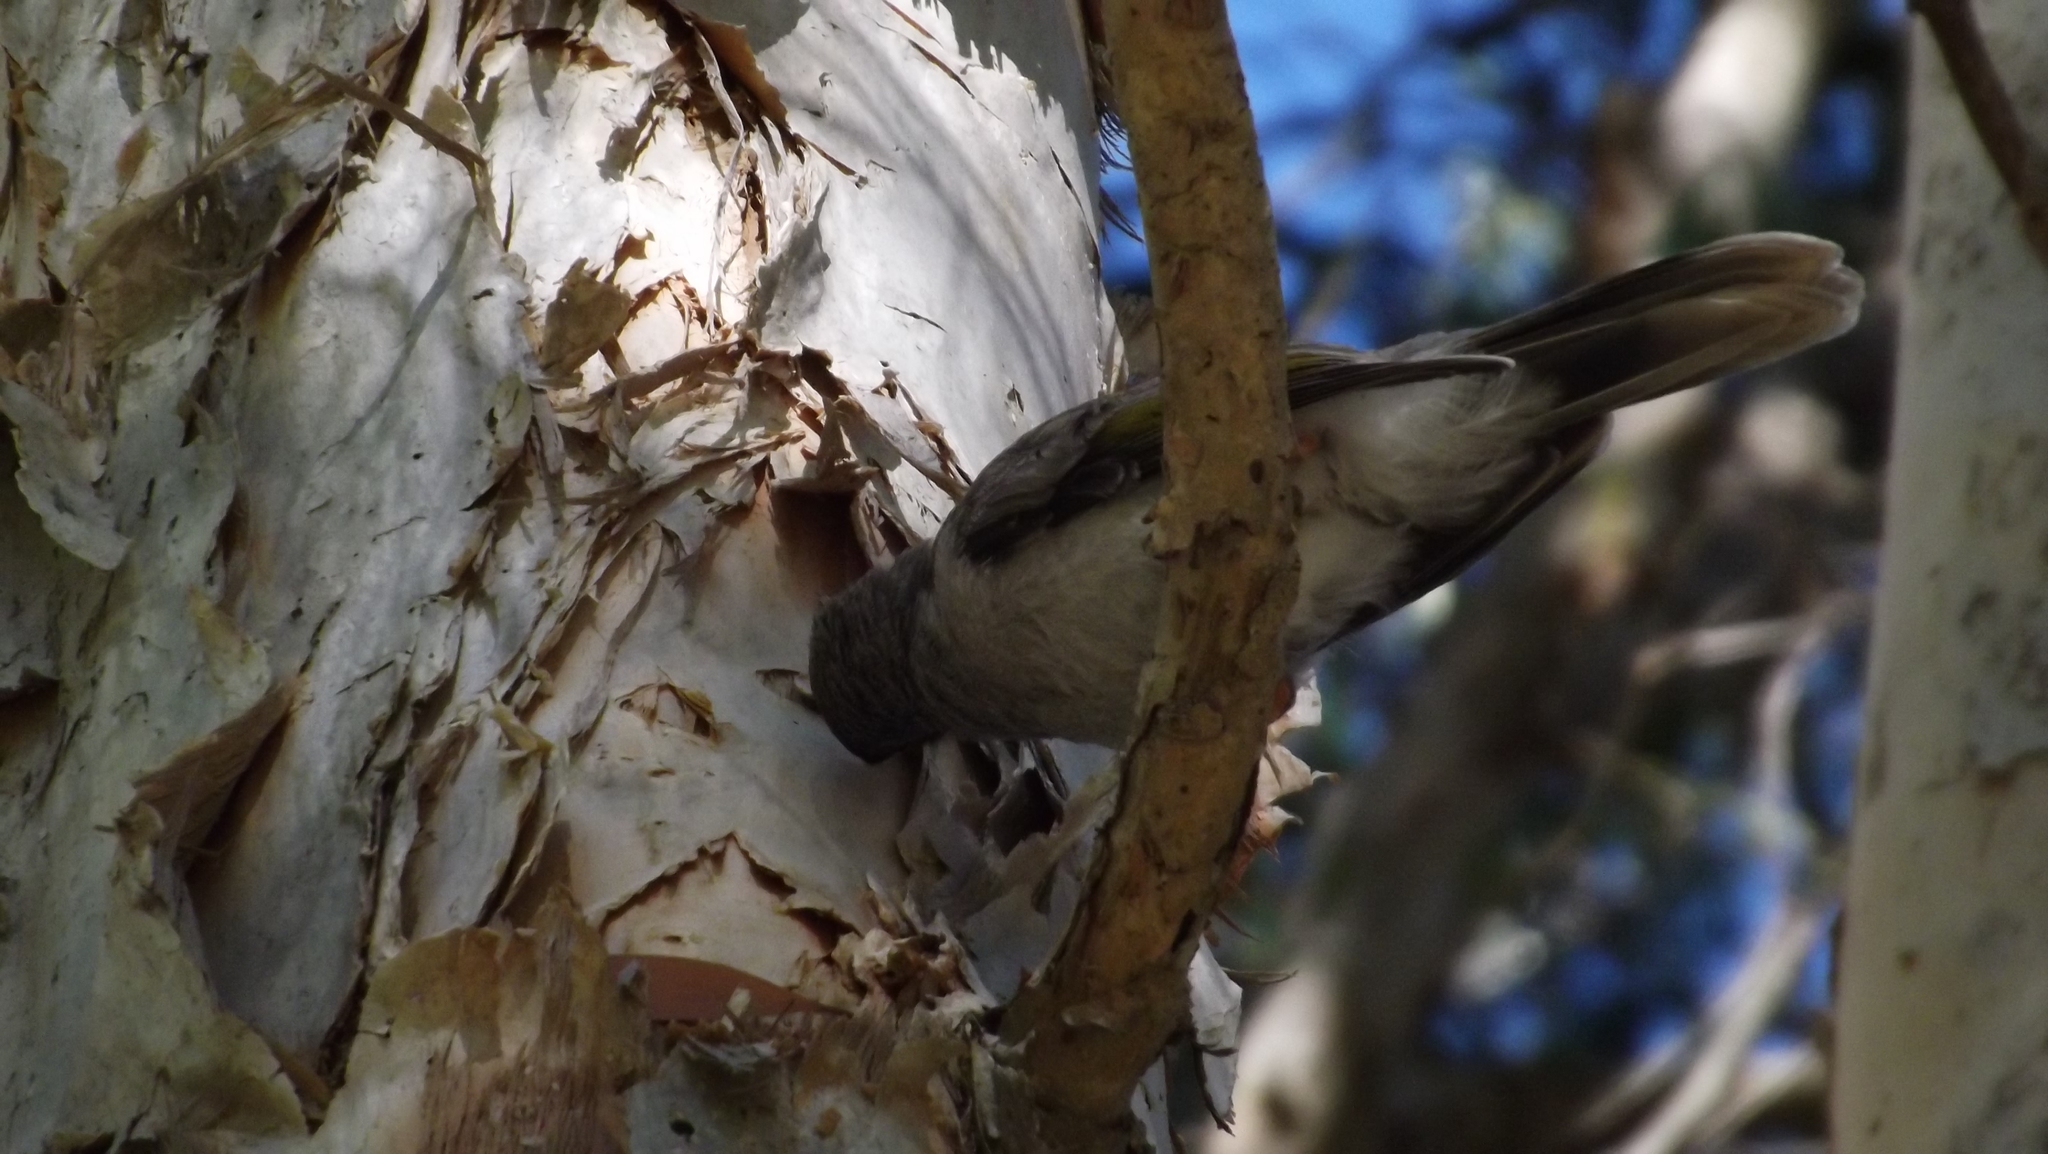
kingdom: Animalia
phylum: Chordata
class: Aves
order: Passeriformes
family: Meliphagidae
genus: Manorina
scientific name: Manorina melanocephala
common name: Noisy miner
